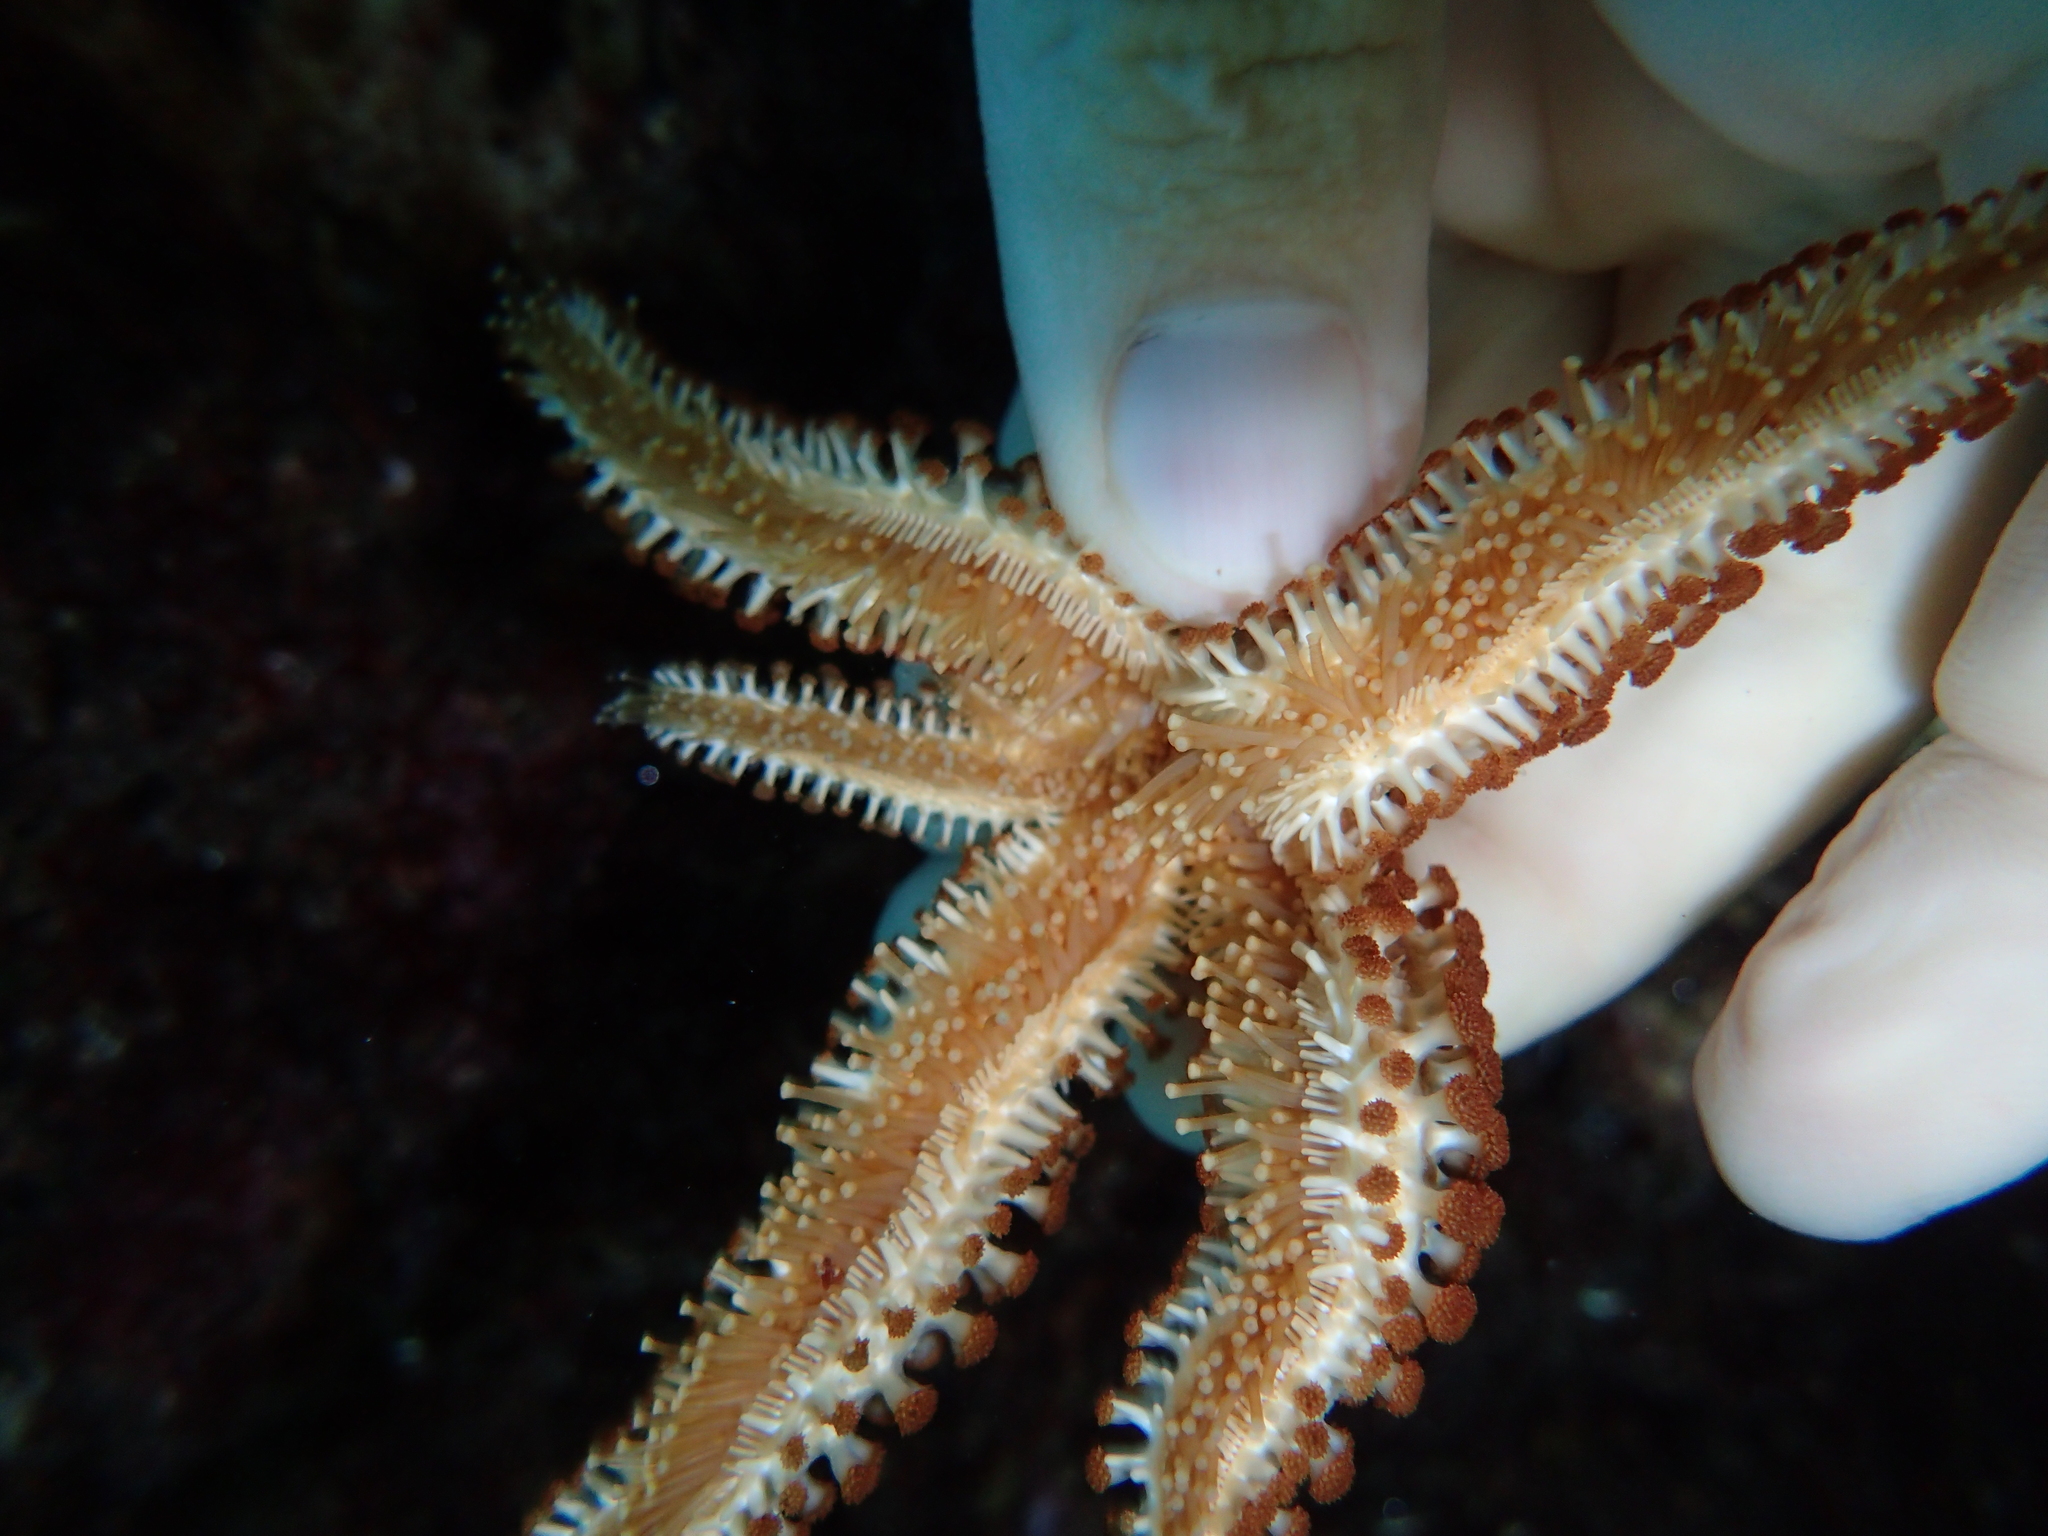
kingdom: Animalia
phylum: Echinodermata
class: Asteroidea
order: Forcipulatida
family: Asteriidae
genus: Coscinasterias
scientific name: Coscinasterias tenuispina
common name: Blue spiny starfish
